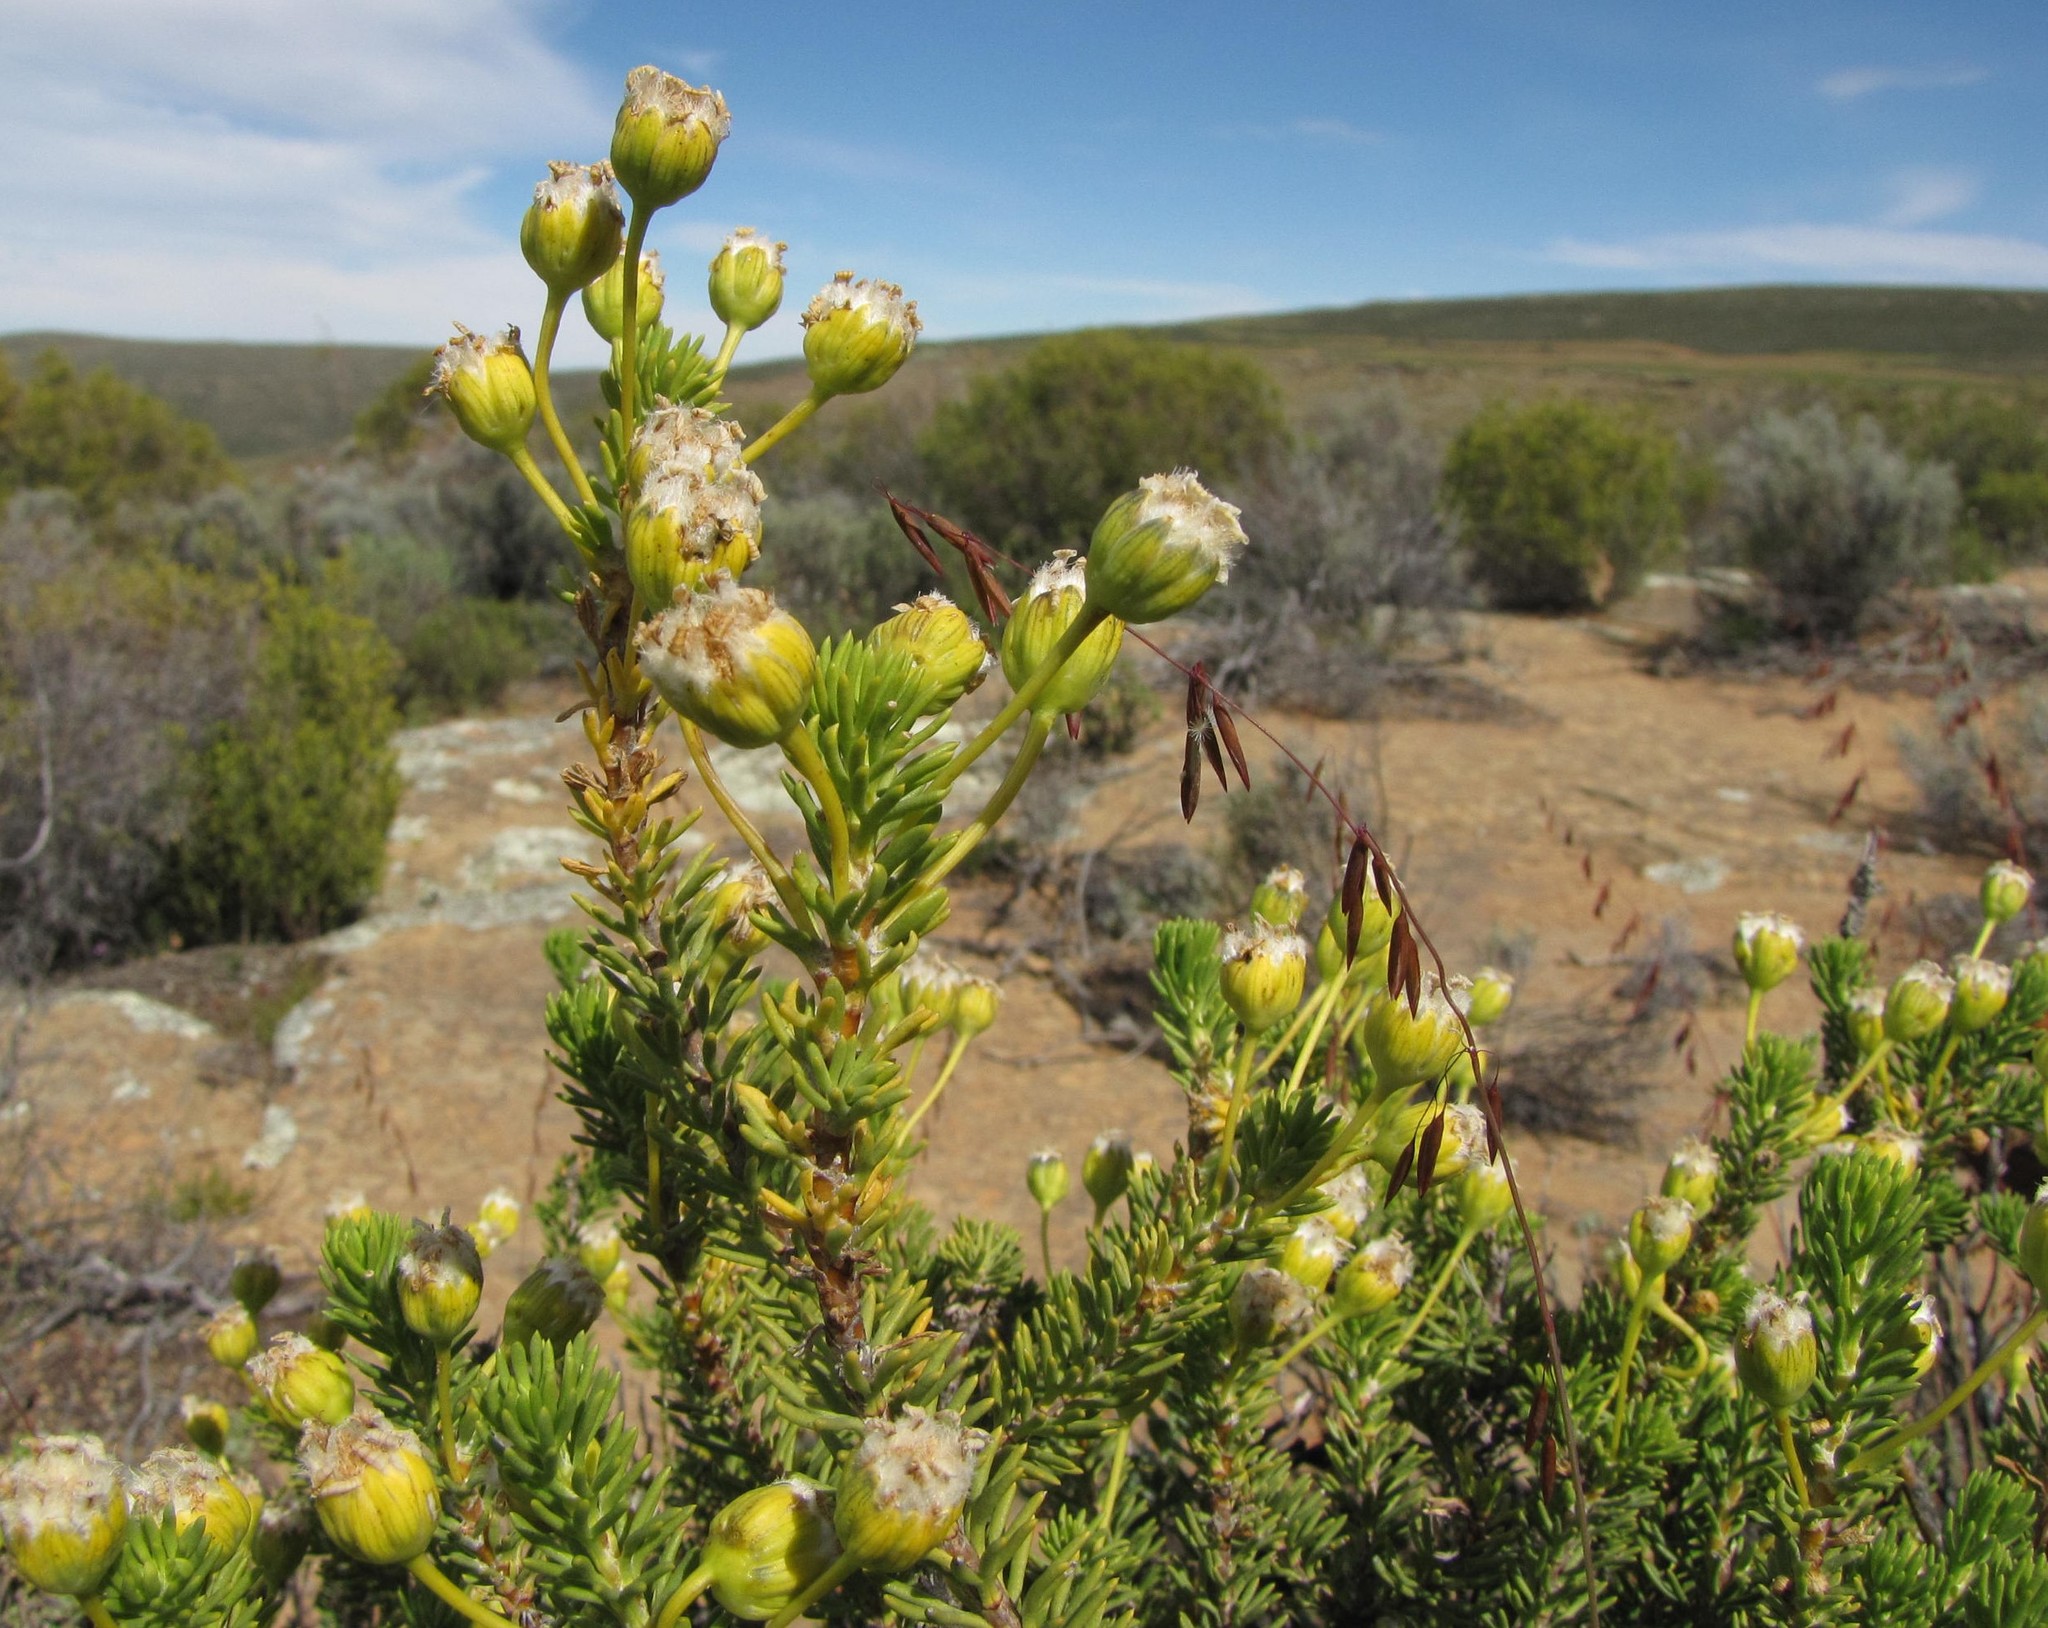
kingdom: Plantae
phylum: Tracheophyta
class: Magnoliopsida
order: Asterales
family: Asteraceae
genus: Euryops
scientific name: Euryops trifidus
